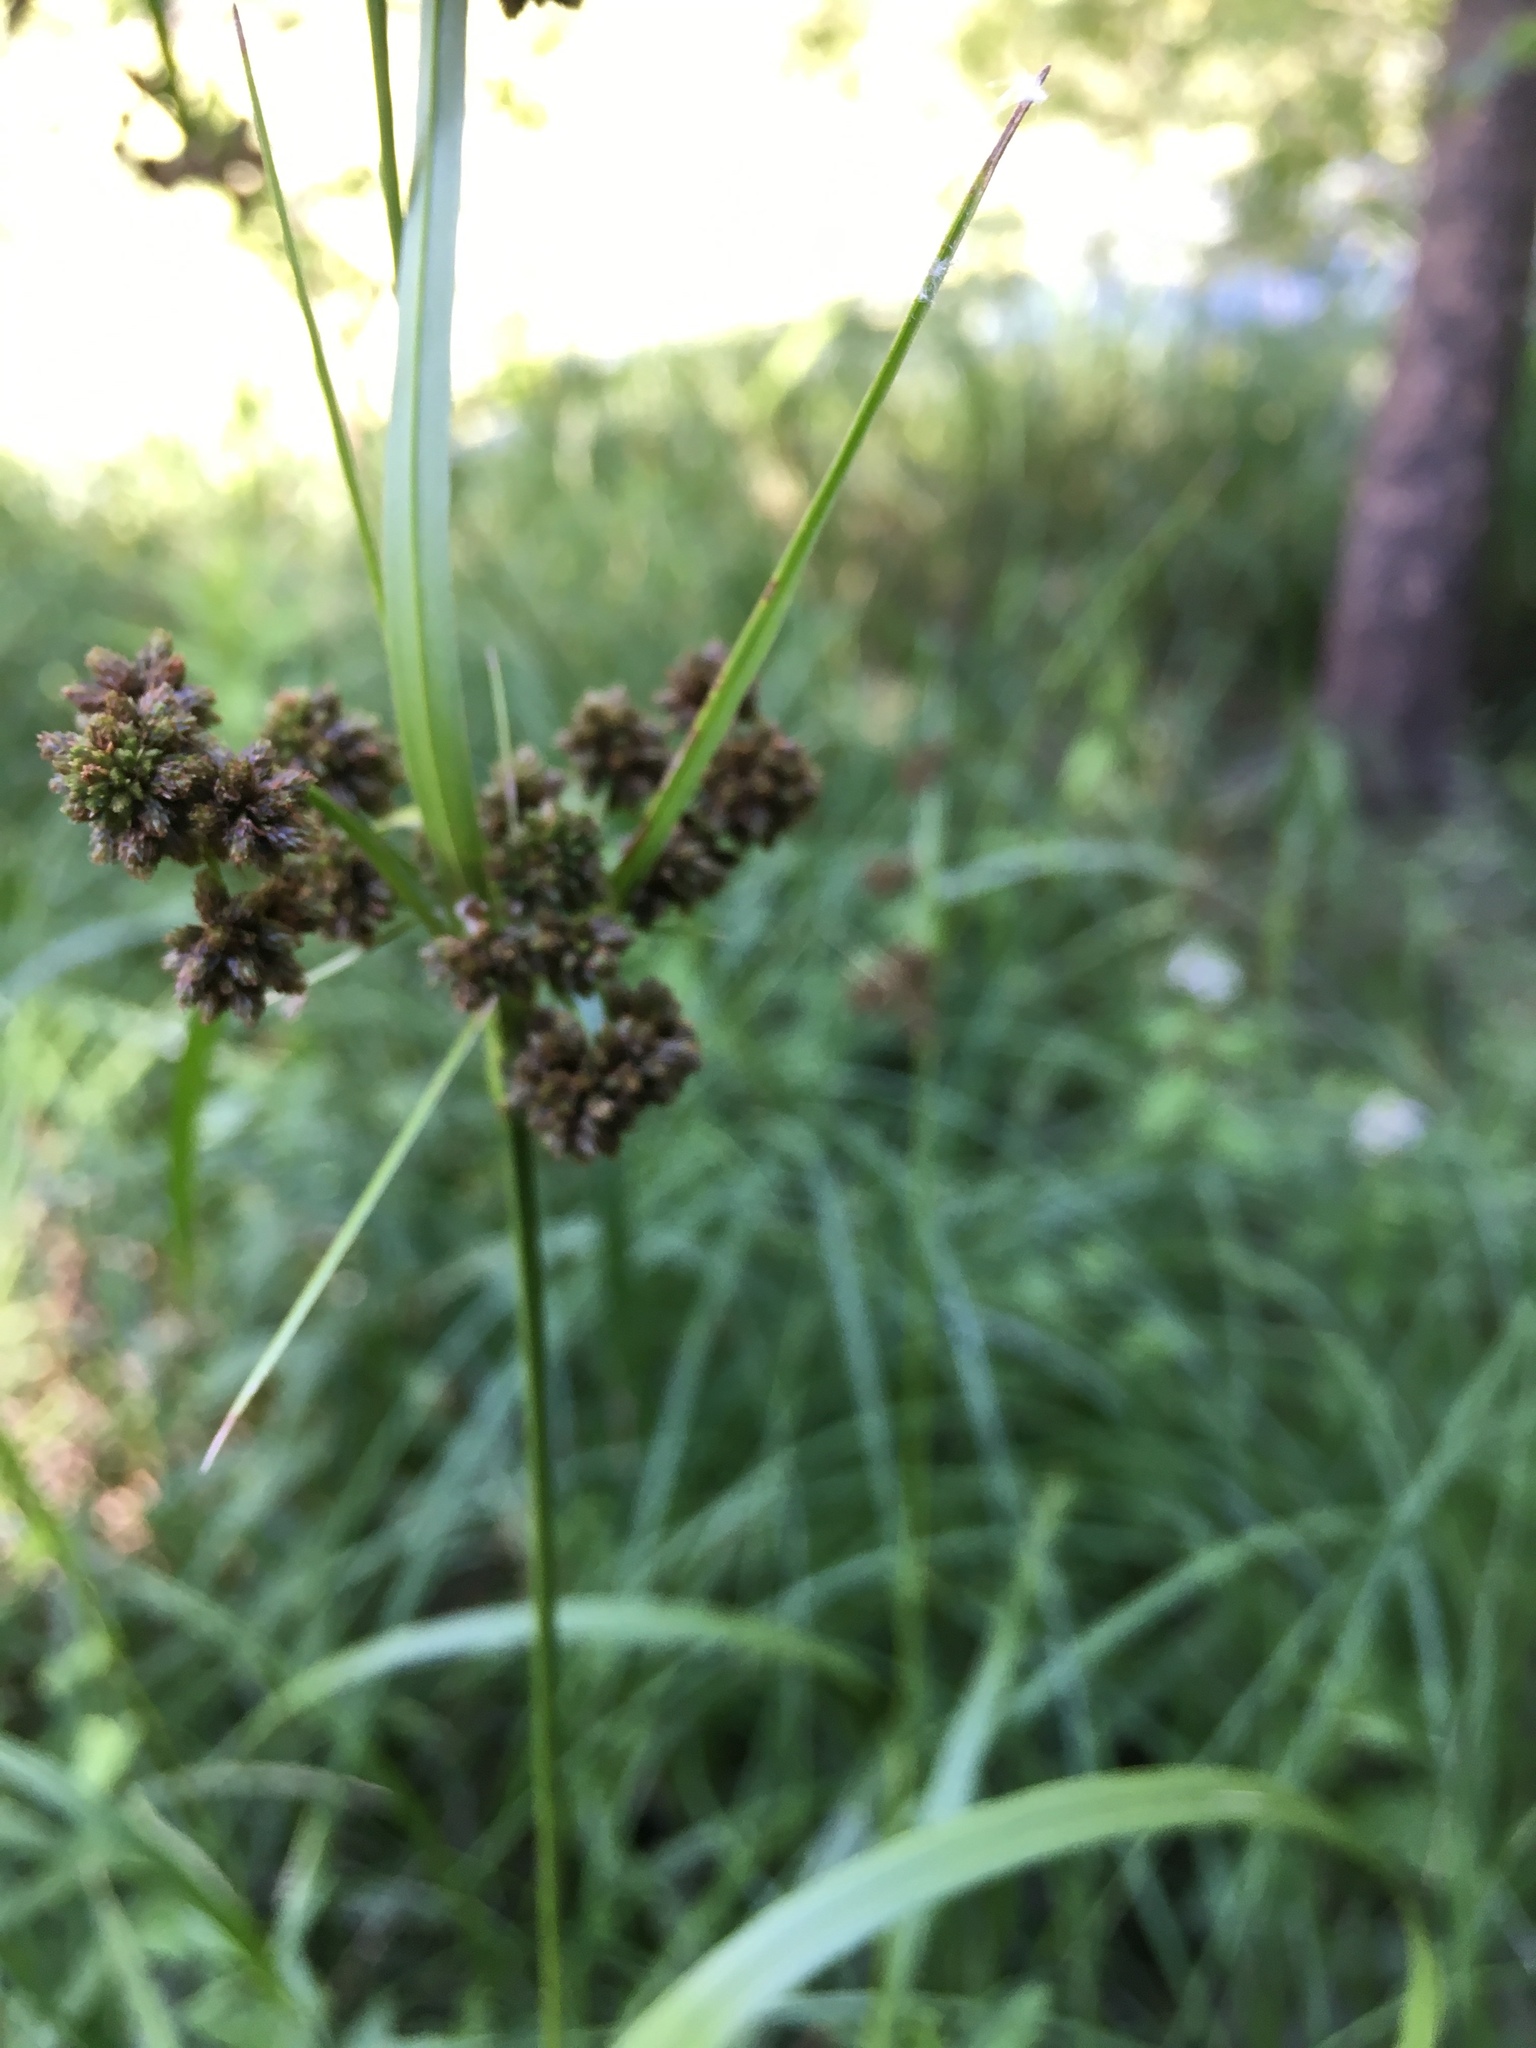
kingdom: Plantae
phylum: Tracheophyta
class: Liliopsida
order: Poales
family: Cyperaceae
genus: Scirpus
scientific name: Scirpus atrovirens
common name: Black bulrush
